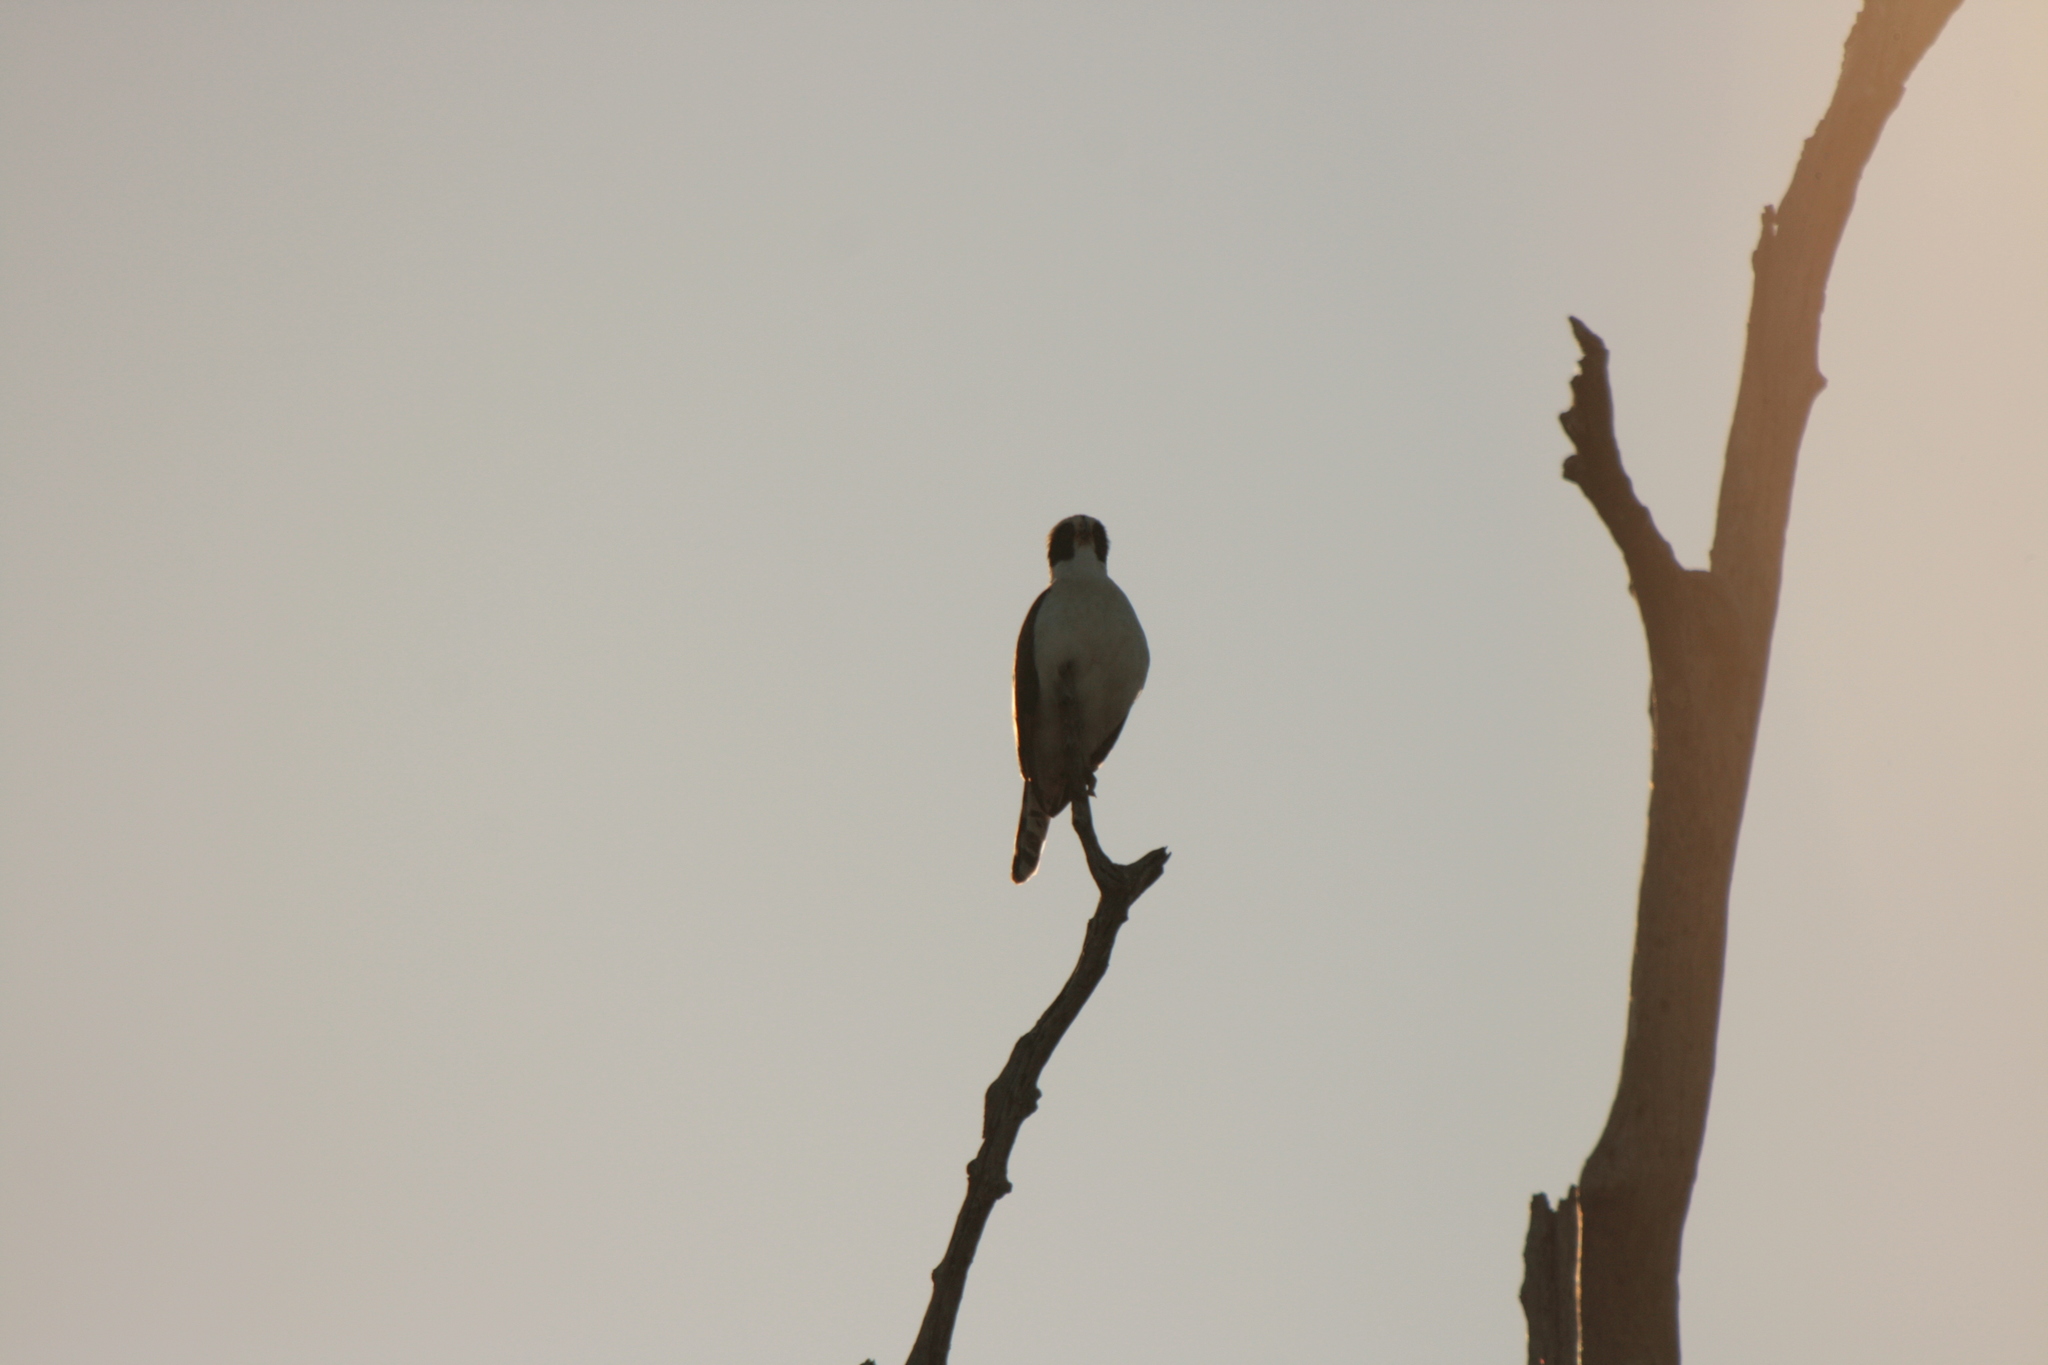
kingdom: Animalia
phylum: Chordata
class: Aves
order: Falconiformes
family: Falconidae
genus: Herpetotheres
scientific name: Herpetotheres cachinnans
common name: Laughing falcon
